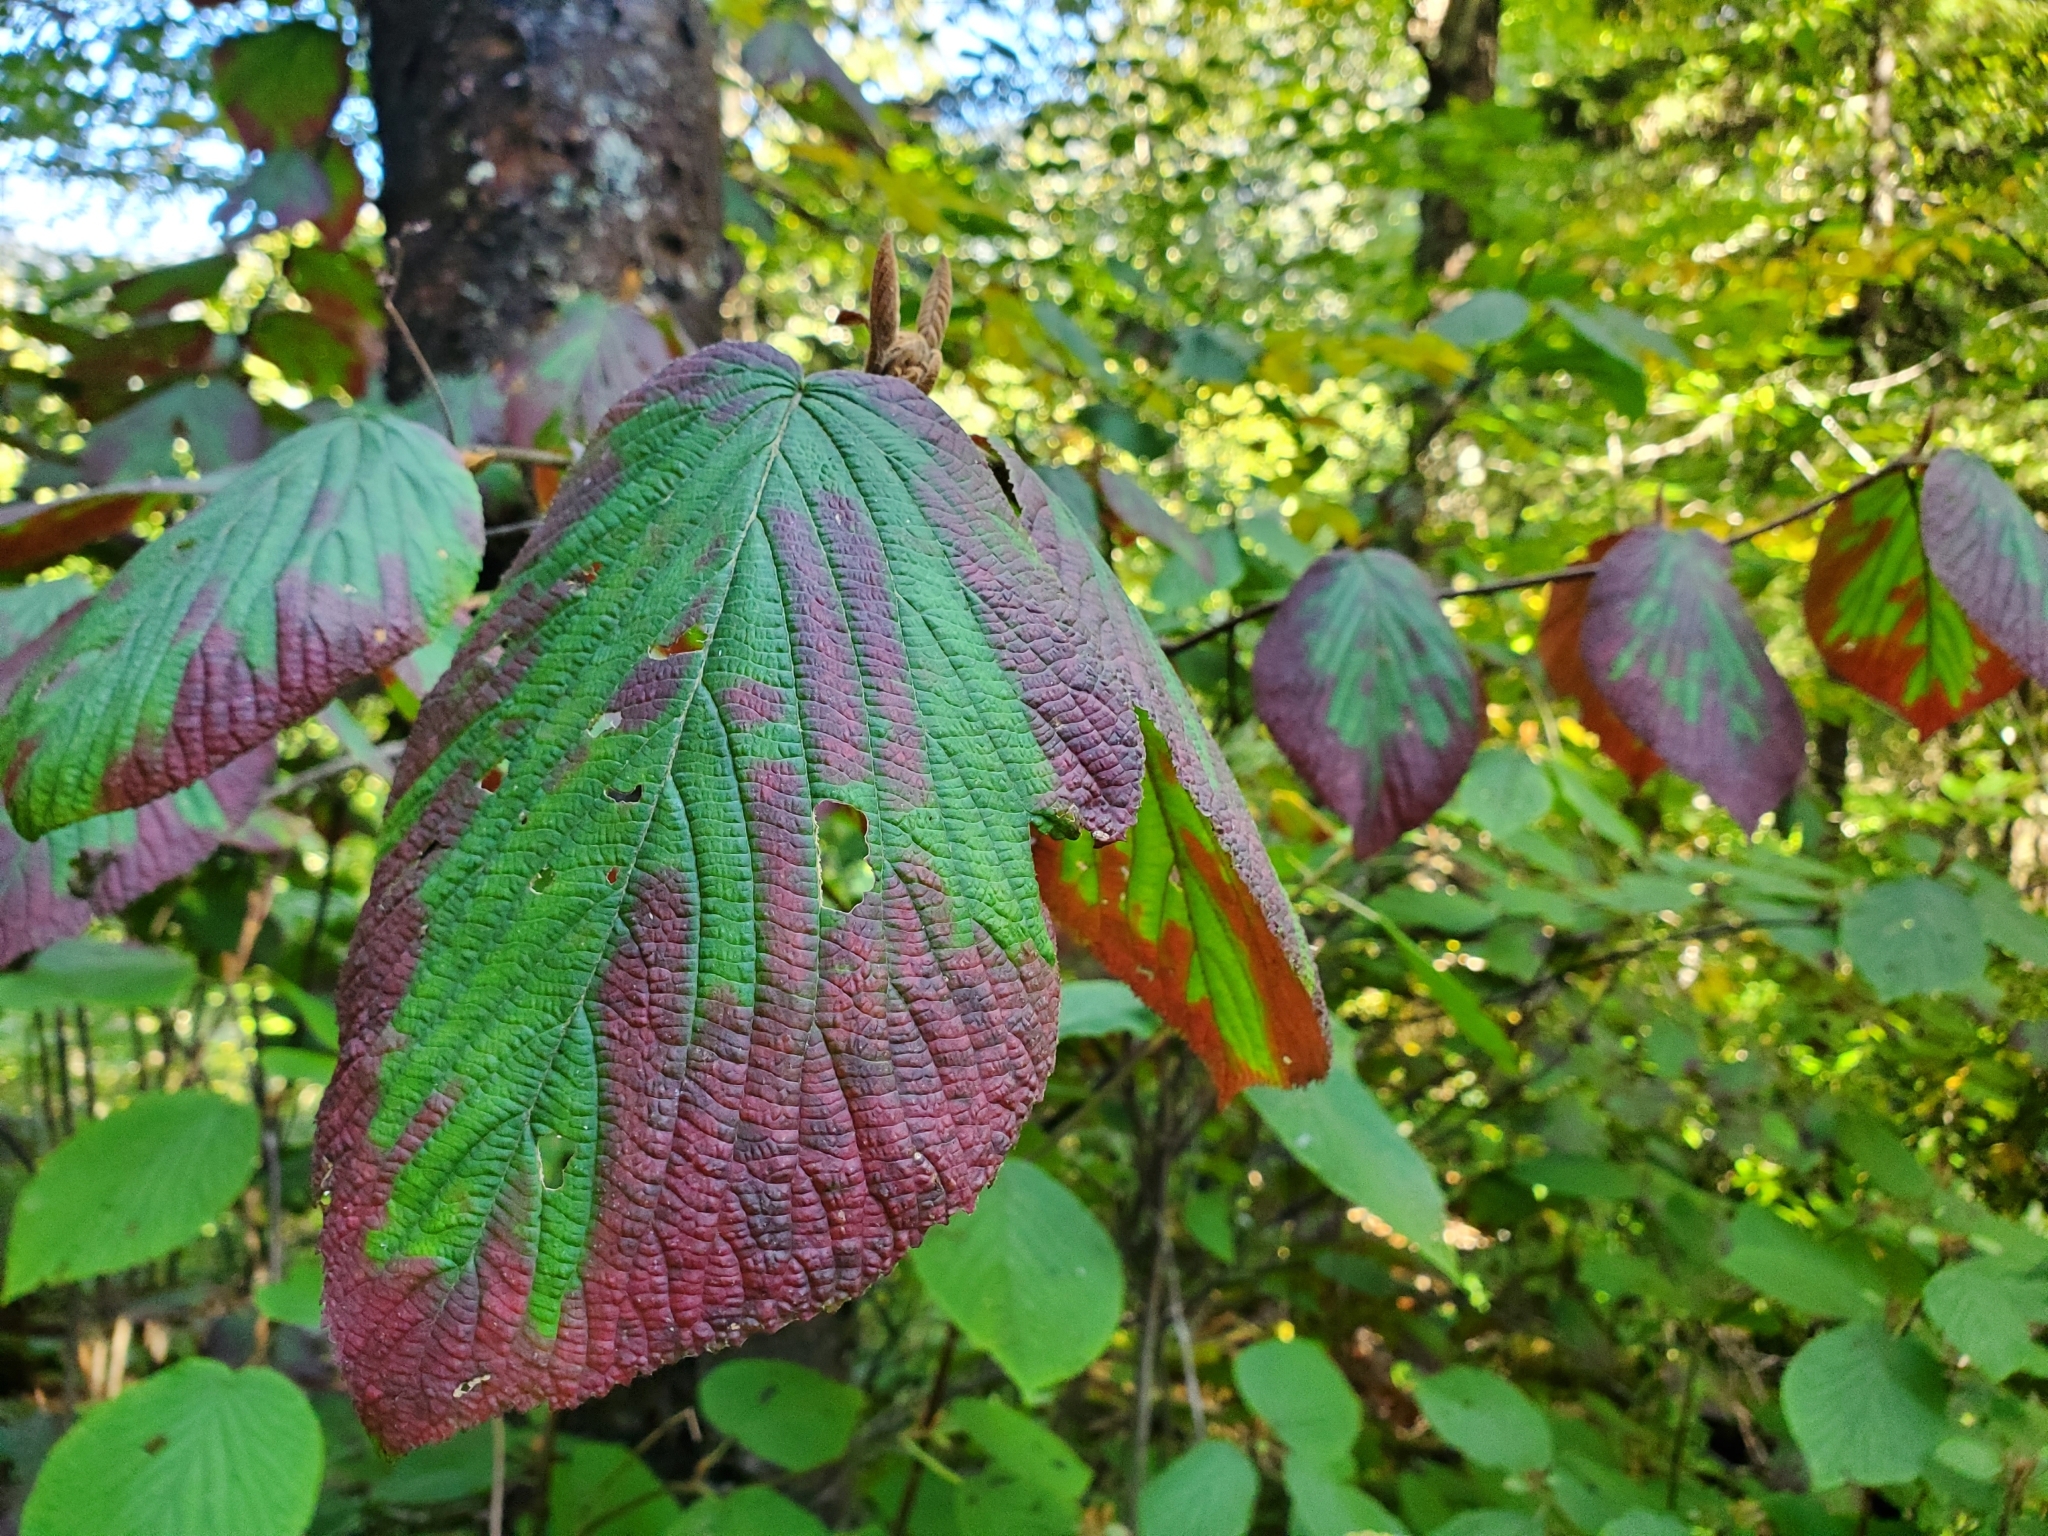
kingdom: Plantae
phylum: Tracheophyta
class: Magnoliopsida
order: Dipsacales
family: Viburnaceae
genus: Viburnum
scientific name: Viburnum lantanoides
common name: Hobblebush
